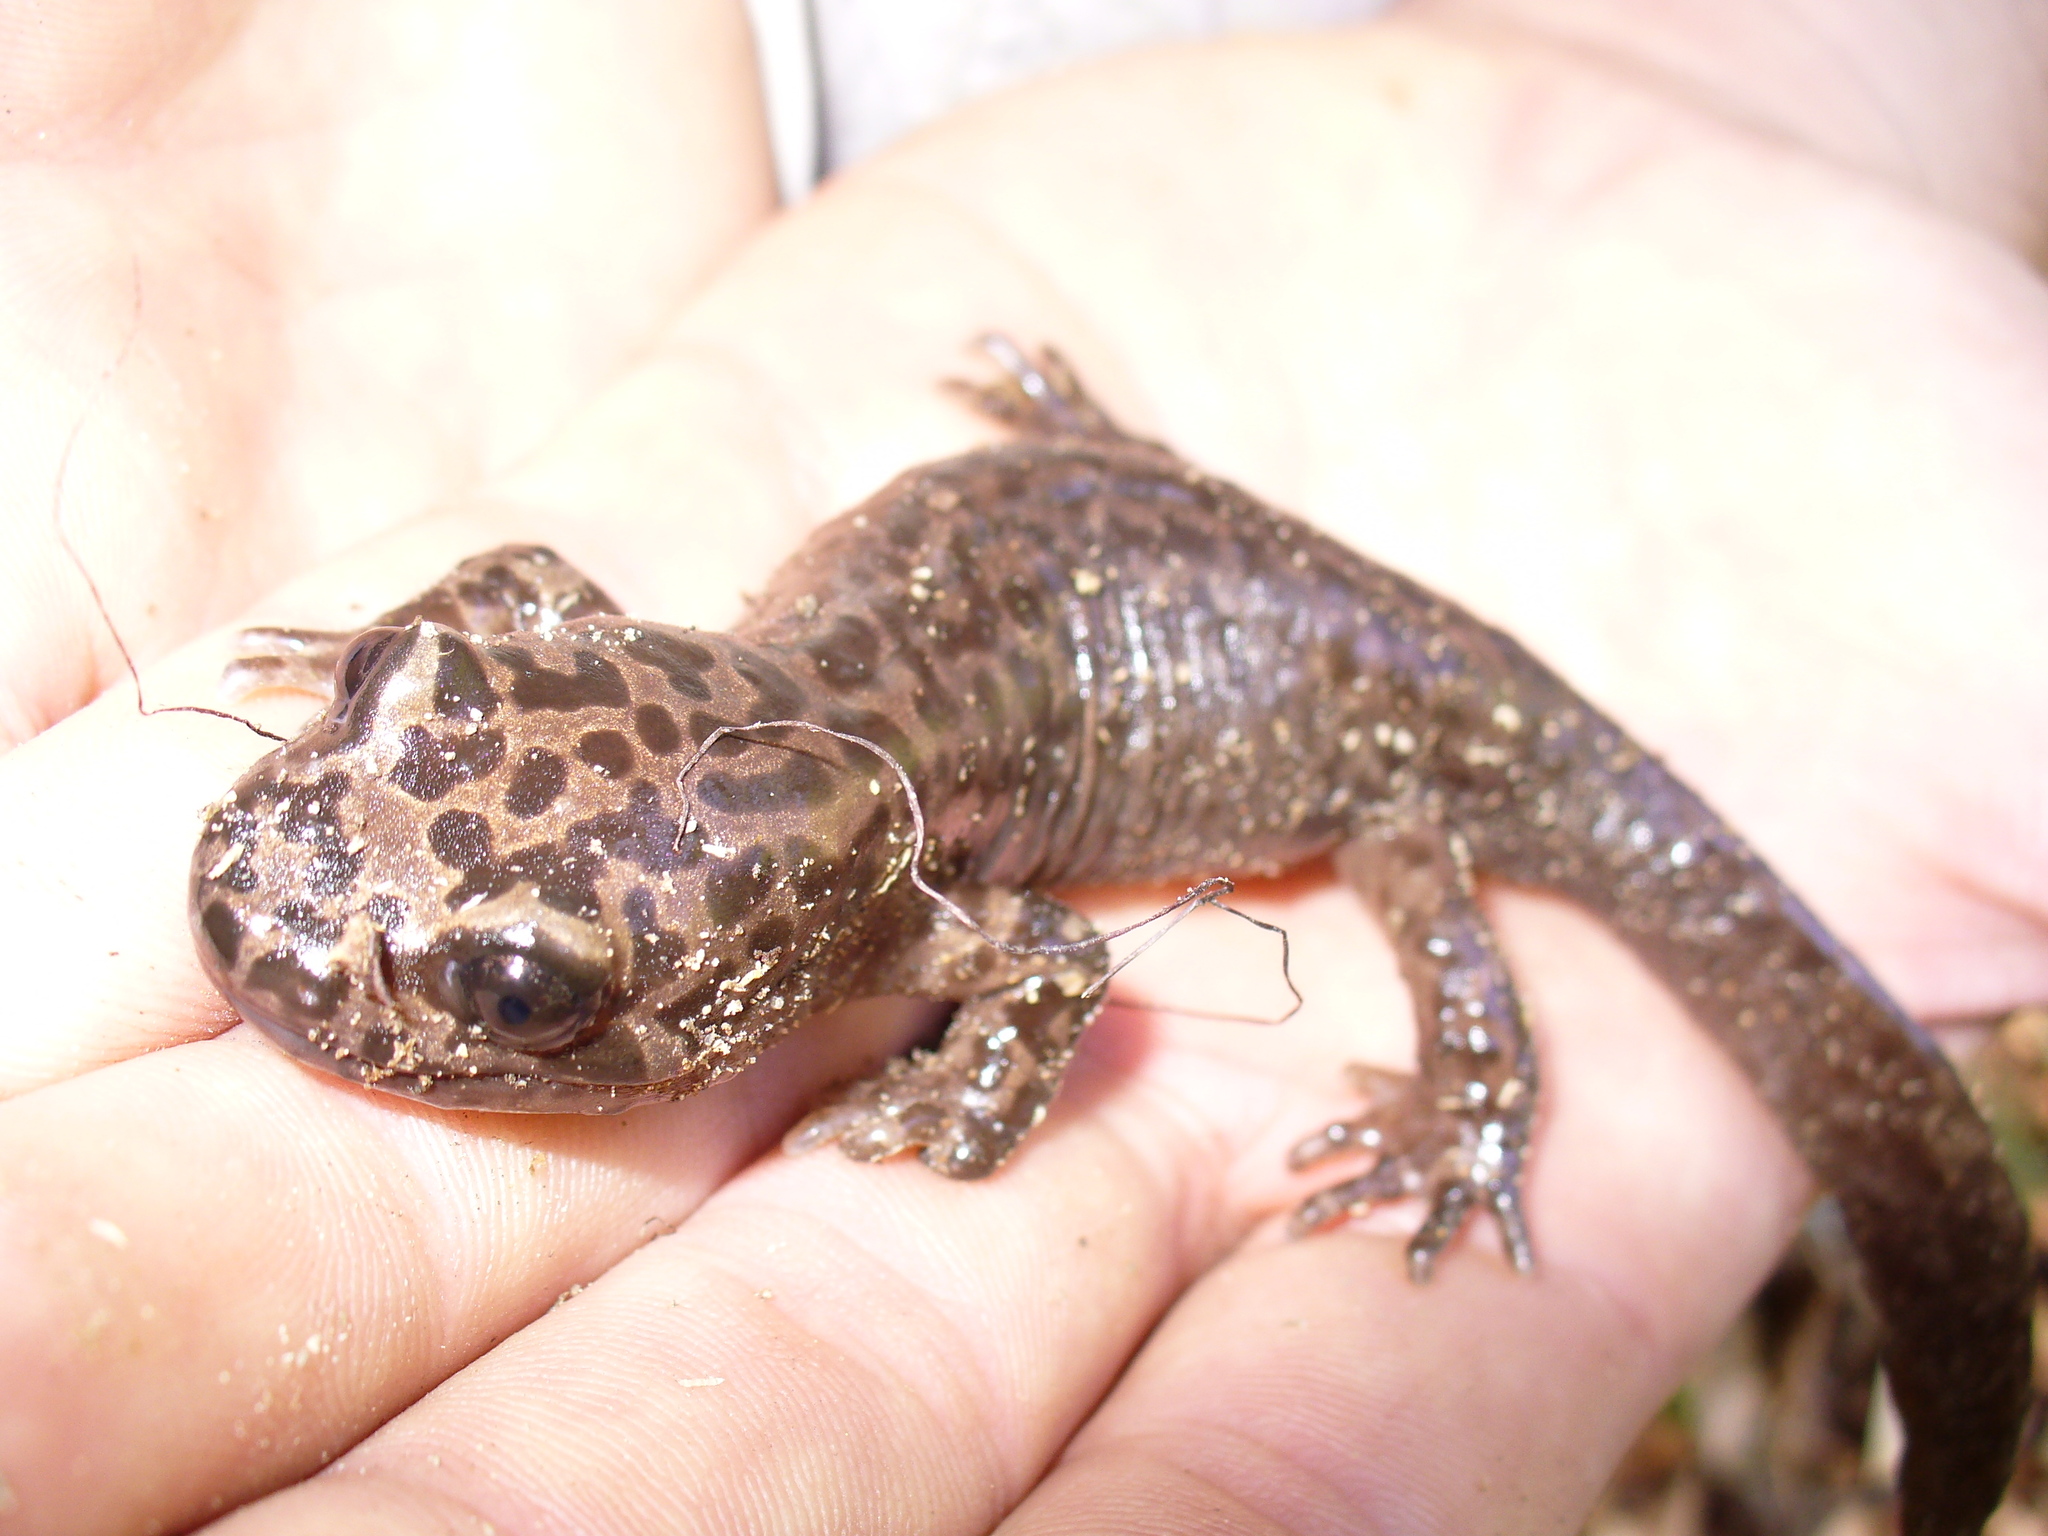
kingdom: Animalia
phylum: Chordata
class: Amphibia
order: Caudata
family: Ambystomatidae
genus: Dicamptodon
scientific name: Dicamptodon ensatus
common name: California giant salamander
